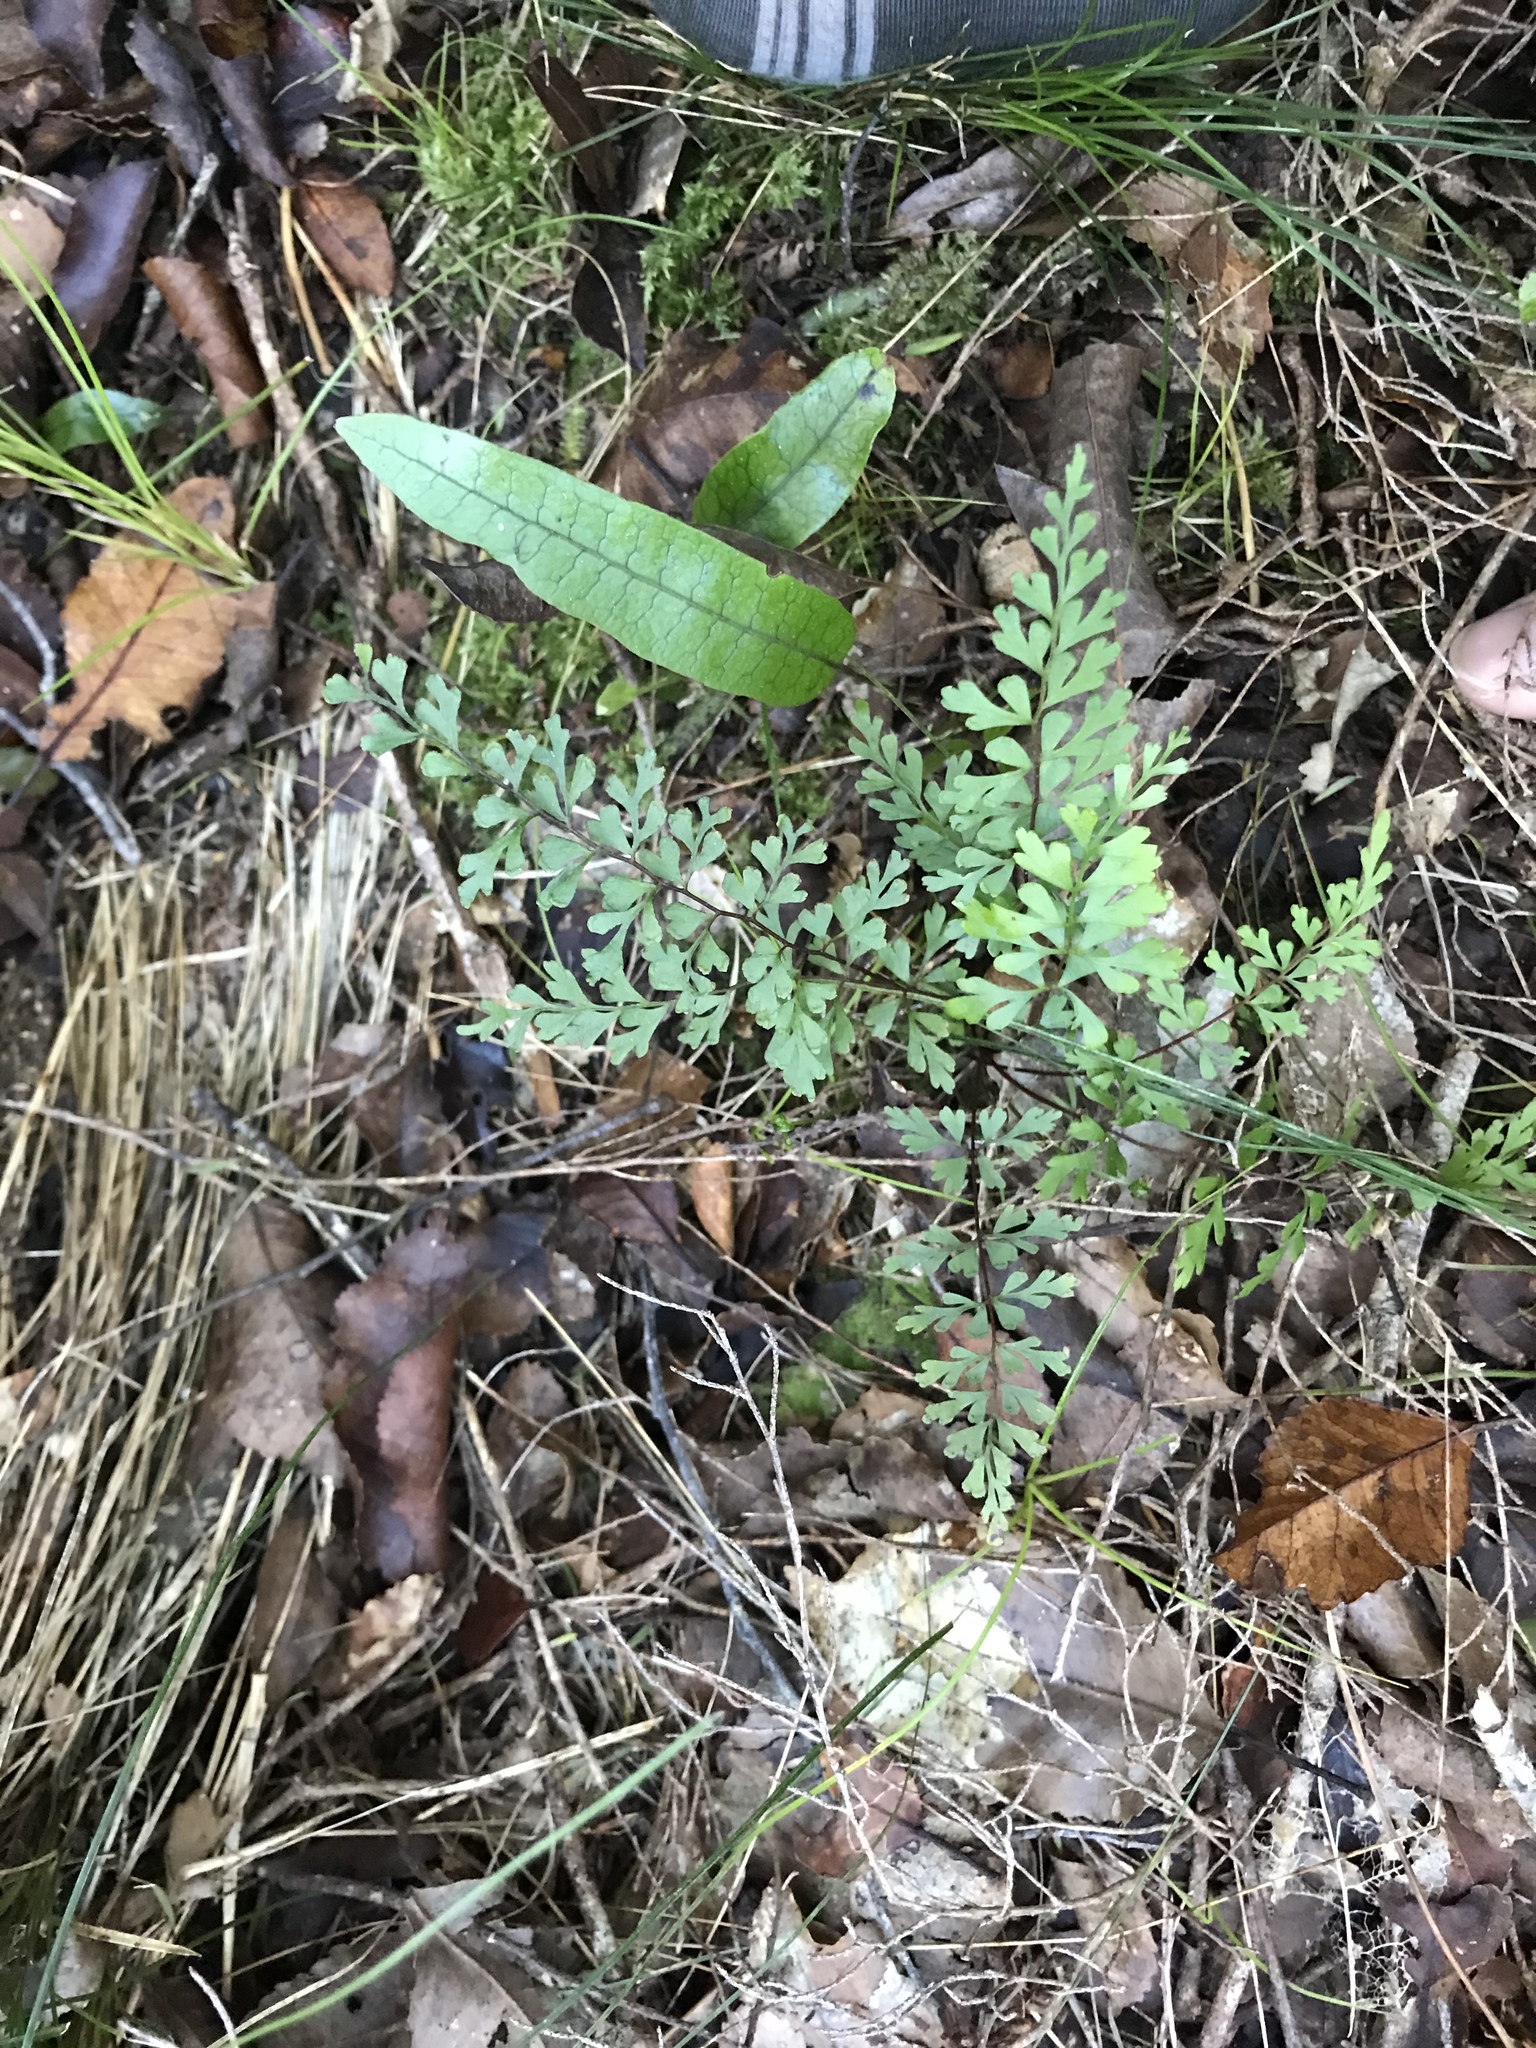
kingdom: Plantae
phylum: Tracheophyta
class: Polypodiopsida
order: Polypodiales
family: Lindsaeaceae
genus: Lindsaea
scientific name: Lindsaea trichomanoides
